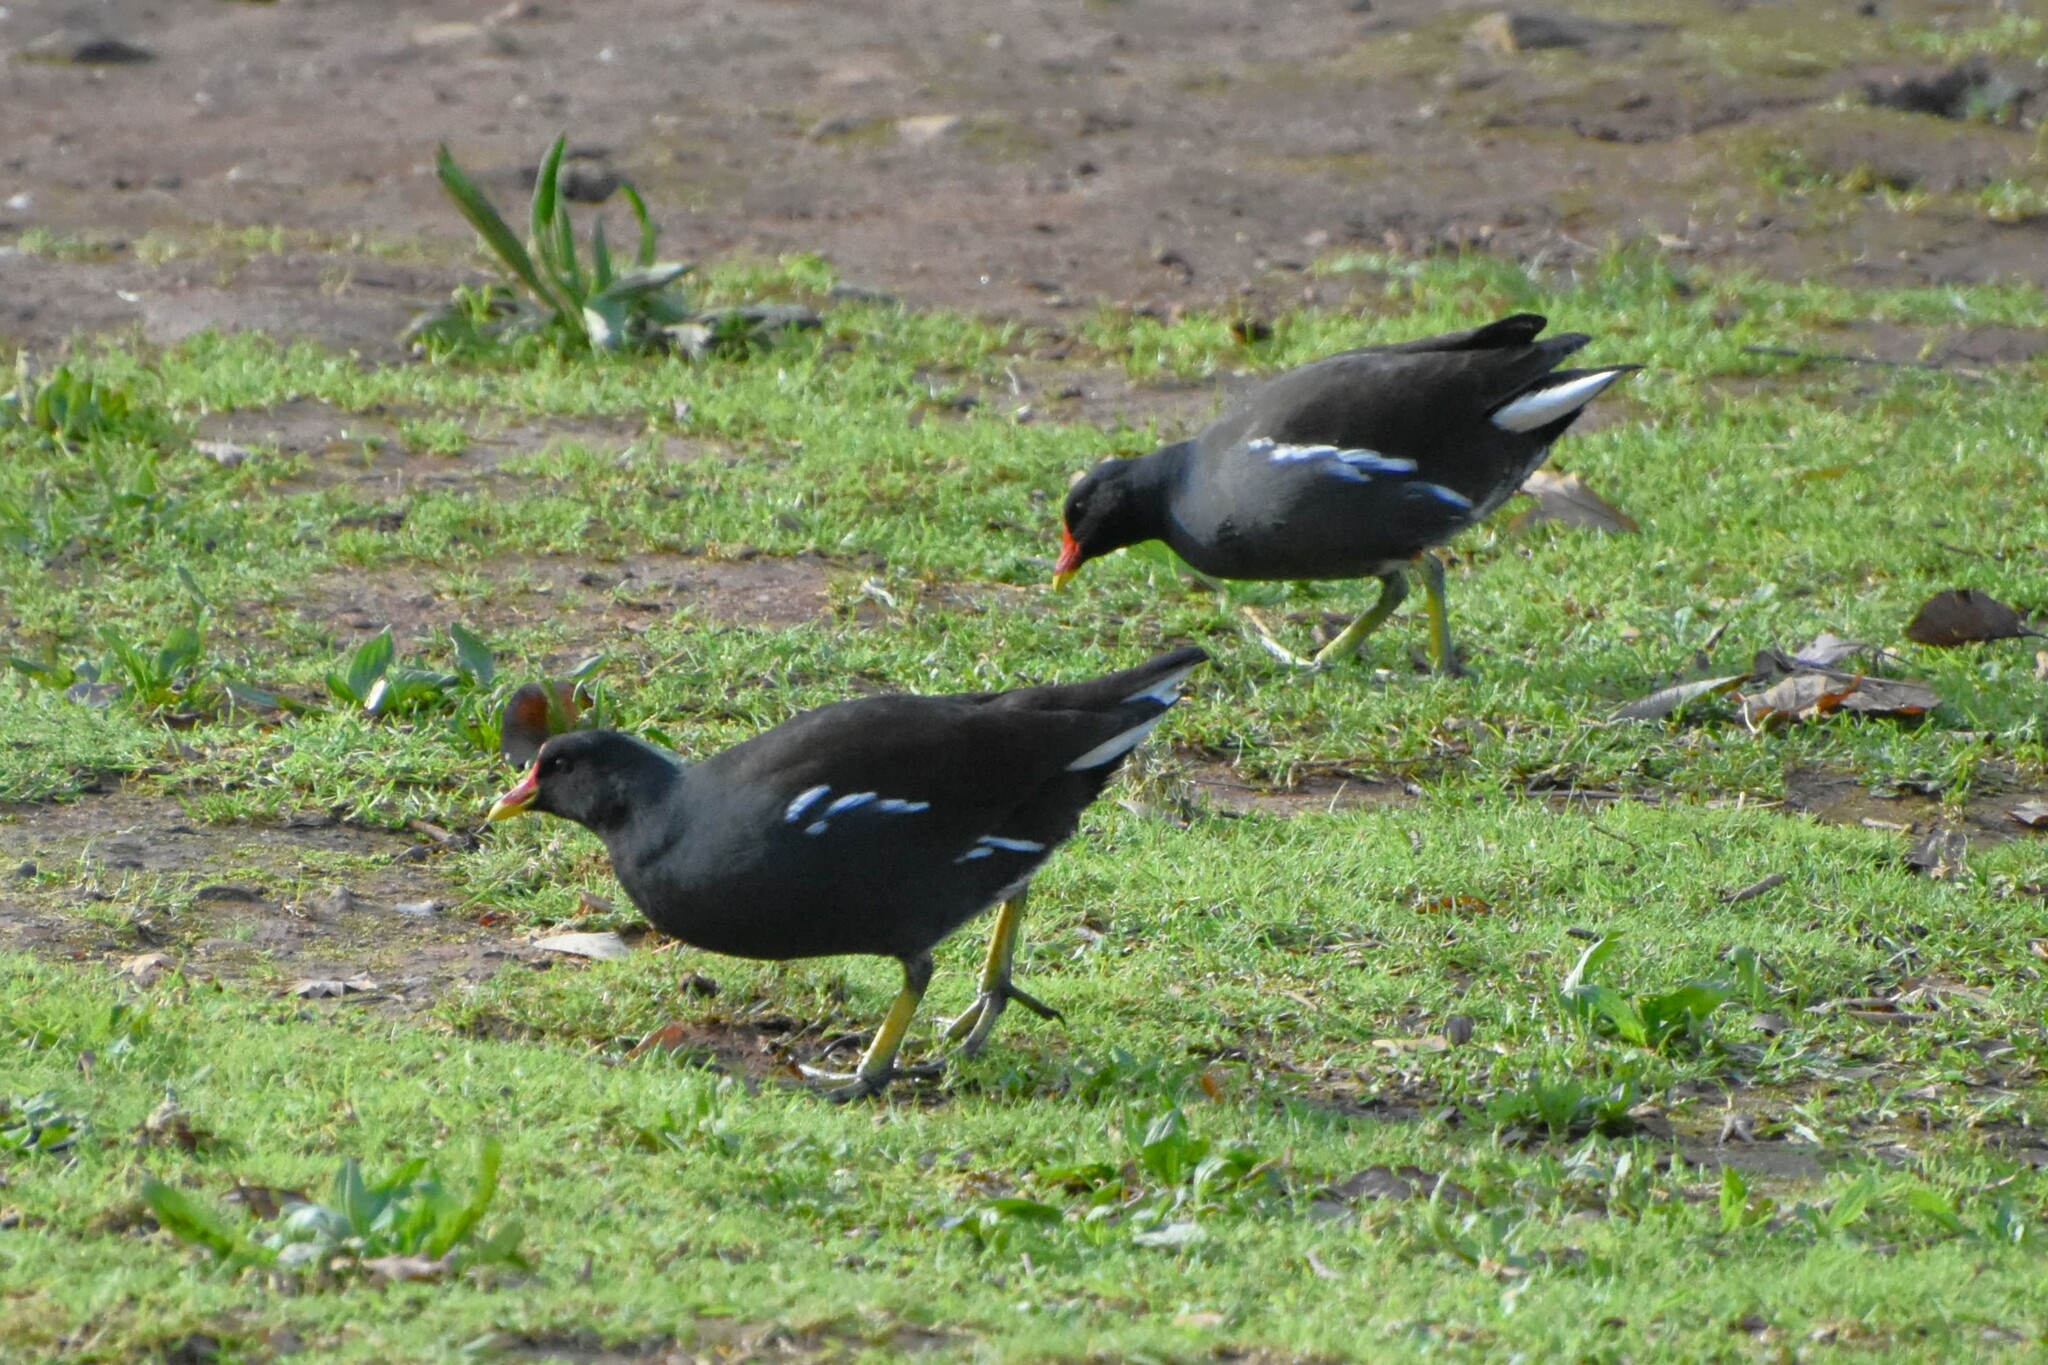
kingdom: Animalia
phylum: Chordata
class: Aves
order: Gruiformes
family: Rallidae
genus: Gallinula
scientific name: Gallinula chloropus
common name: Common moorhen
